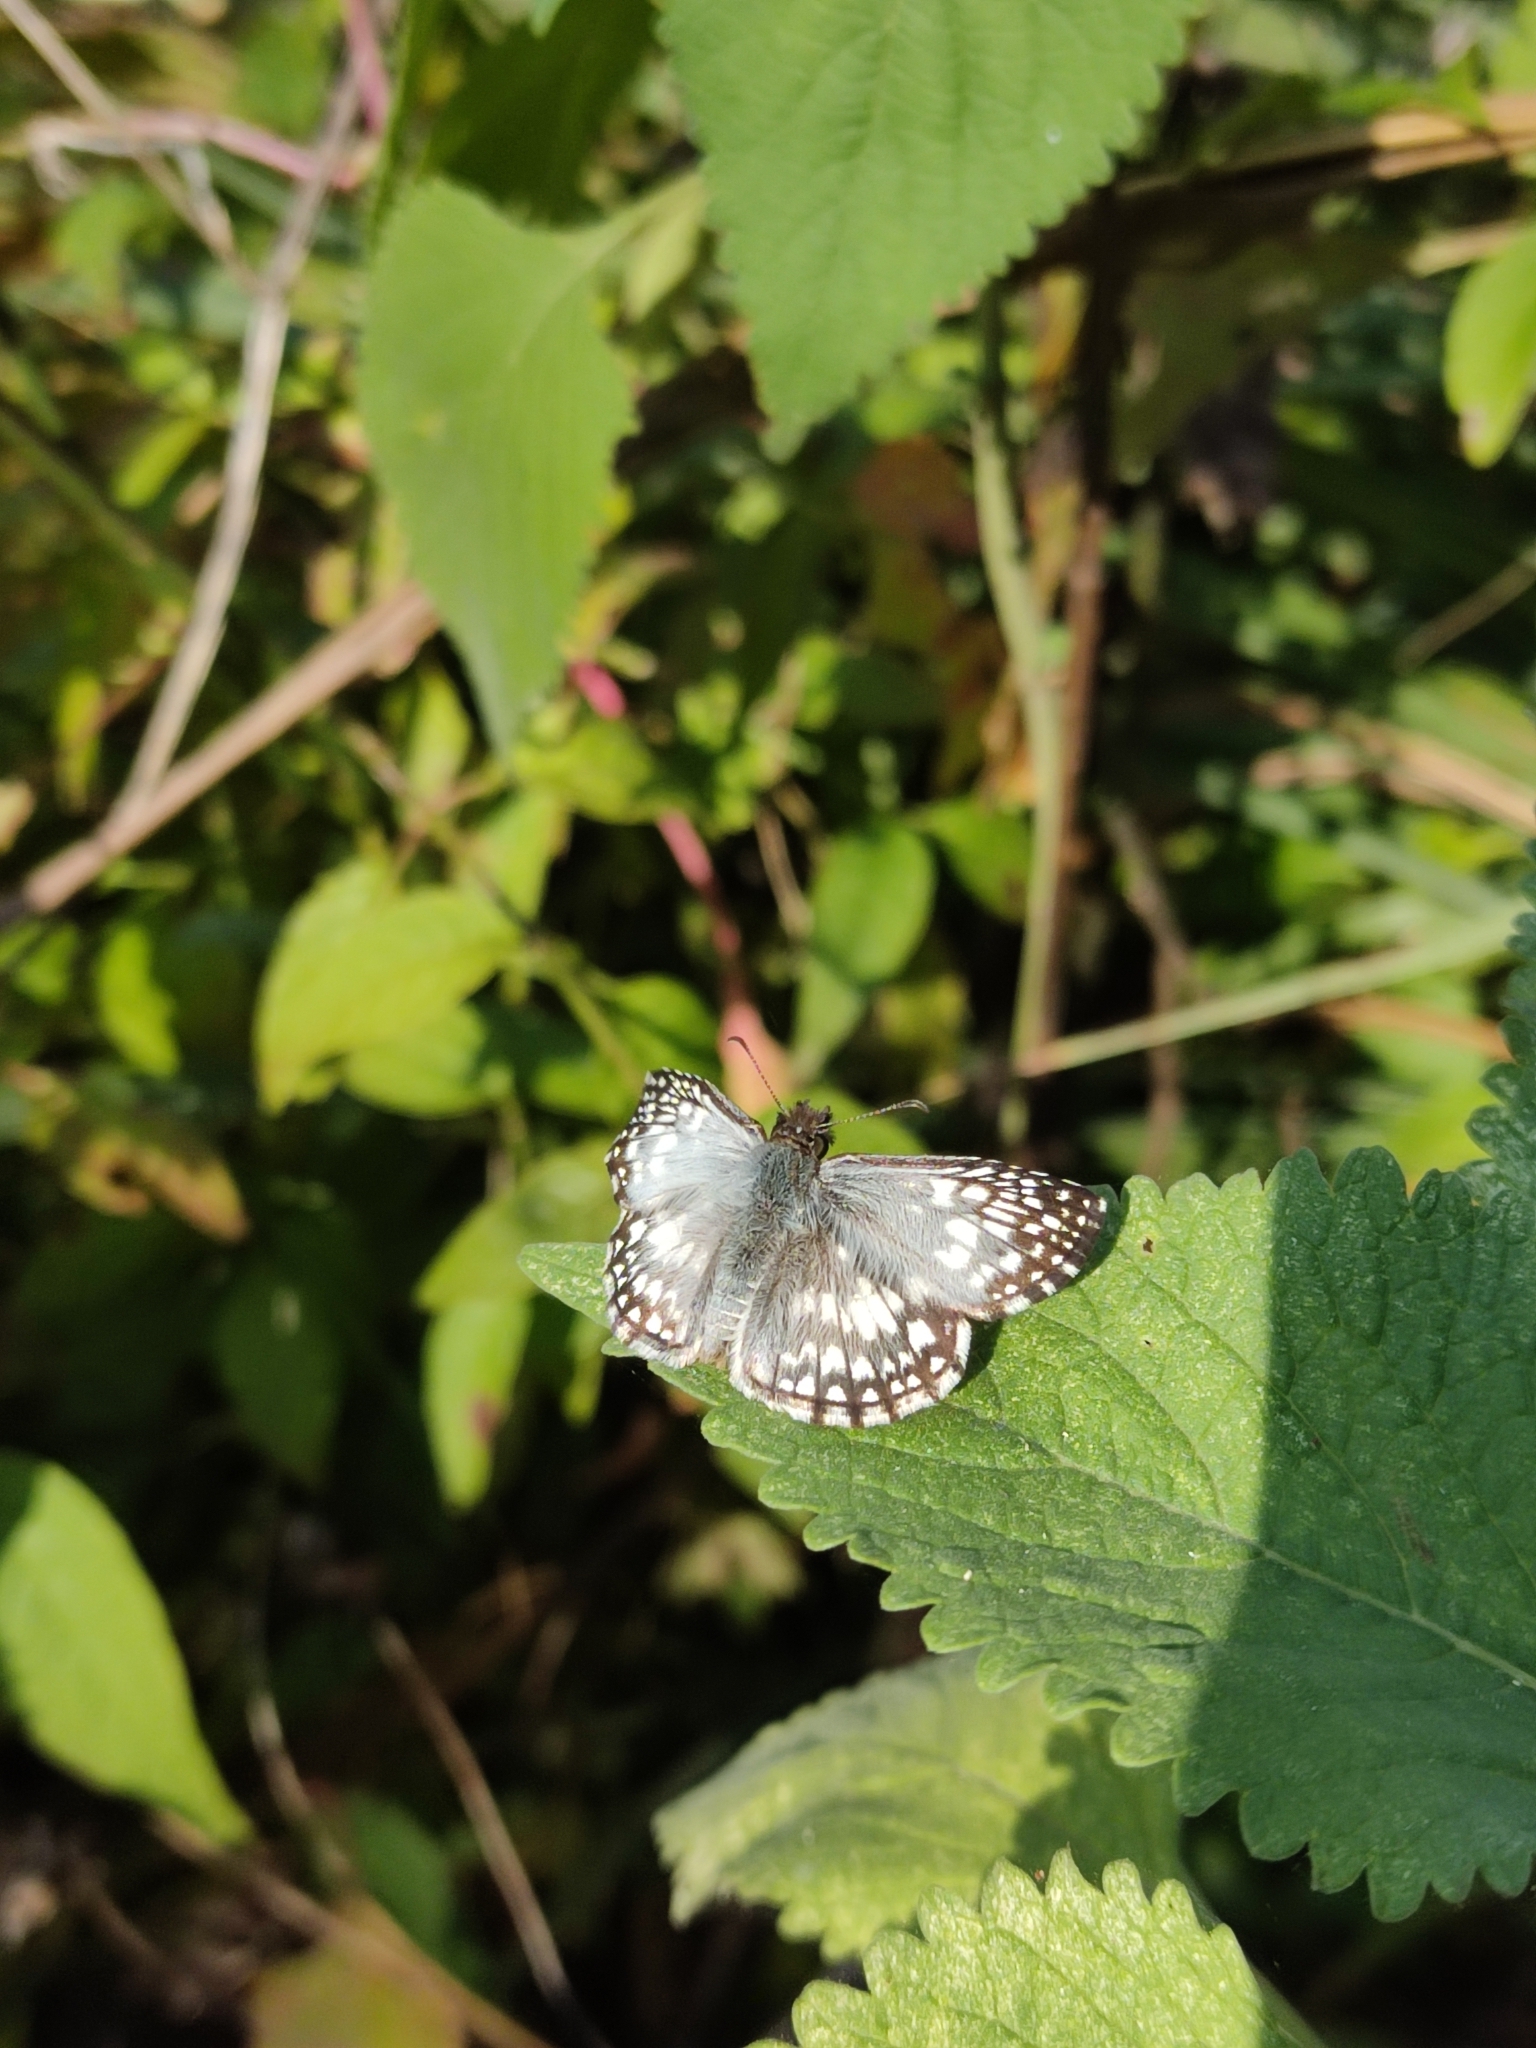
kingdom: Animalia
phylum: Arthropoda
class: Insecta
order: Lepidoptera
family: Hesperiidae
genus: Pyrgus
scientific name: Pyrgus oileus
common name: Tropical checkered-skipper
